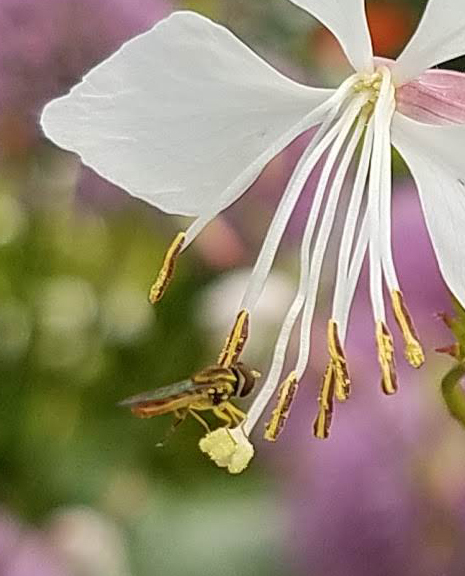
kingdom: Animalia
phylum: Arthropoda
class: Insecta
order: Diptera
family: Syrphidae
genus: Toxomerus
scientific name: Toxomerus marginatus
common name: Syrphid fly
